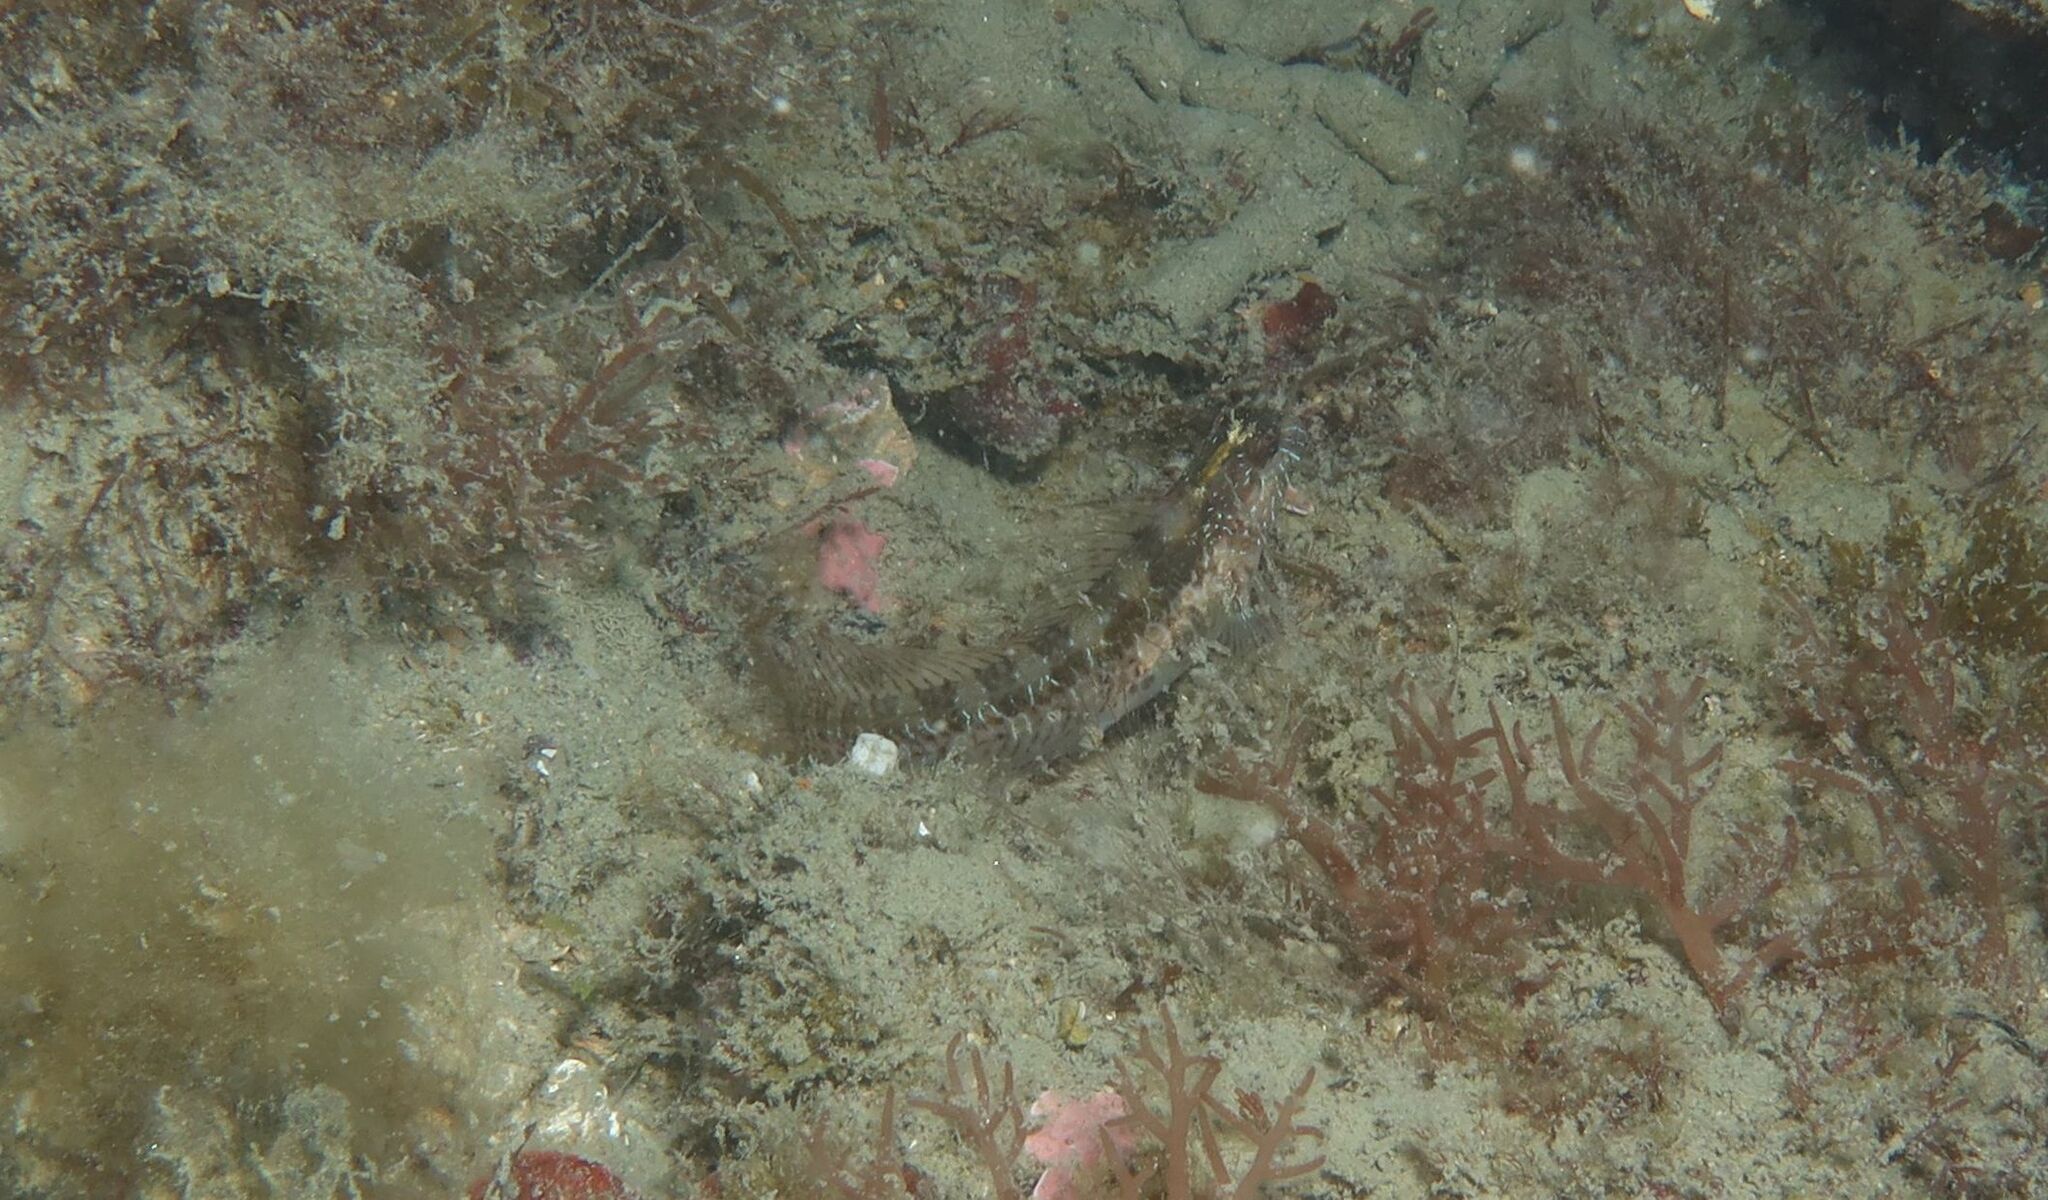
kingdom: Animalia
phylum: Chordata
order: Perciformes
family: Blenniidae
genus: Parablennius
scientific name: Parablennius rouxi
